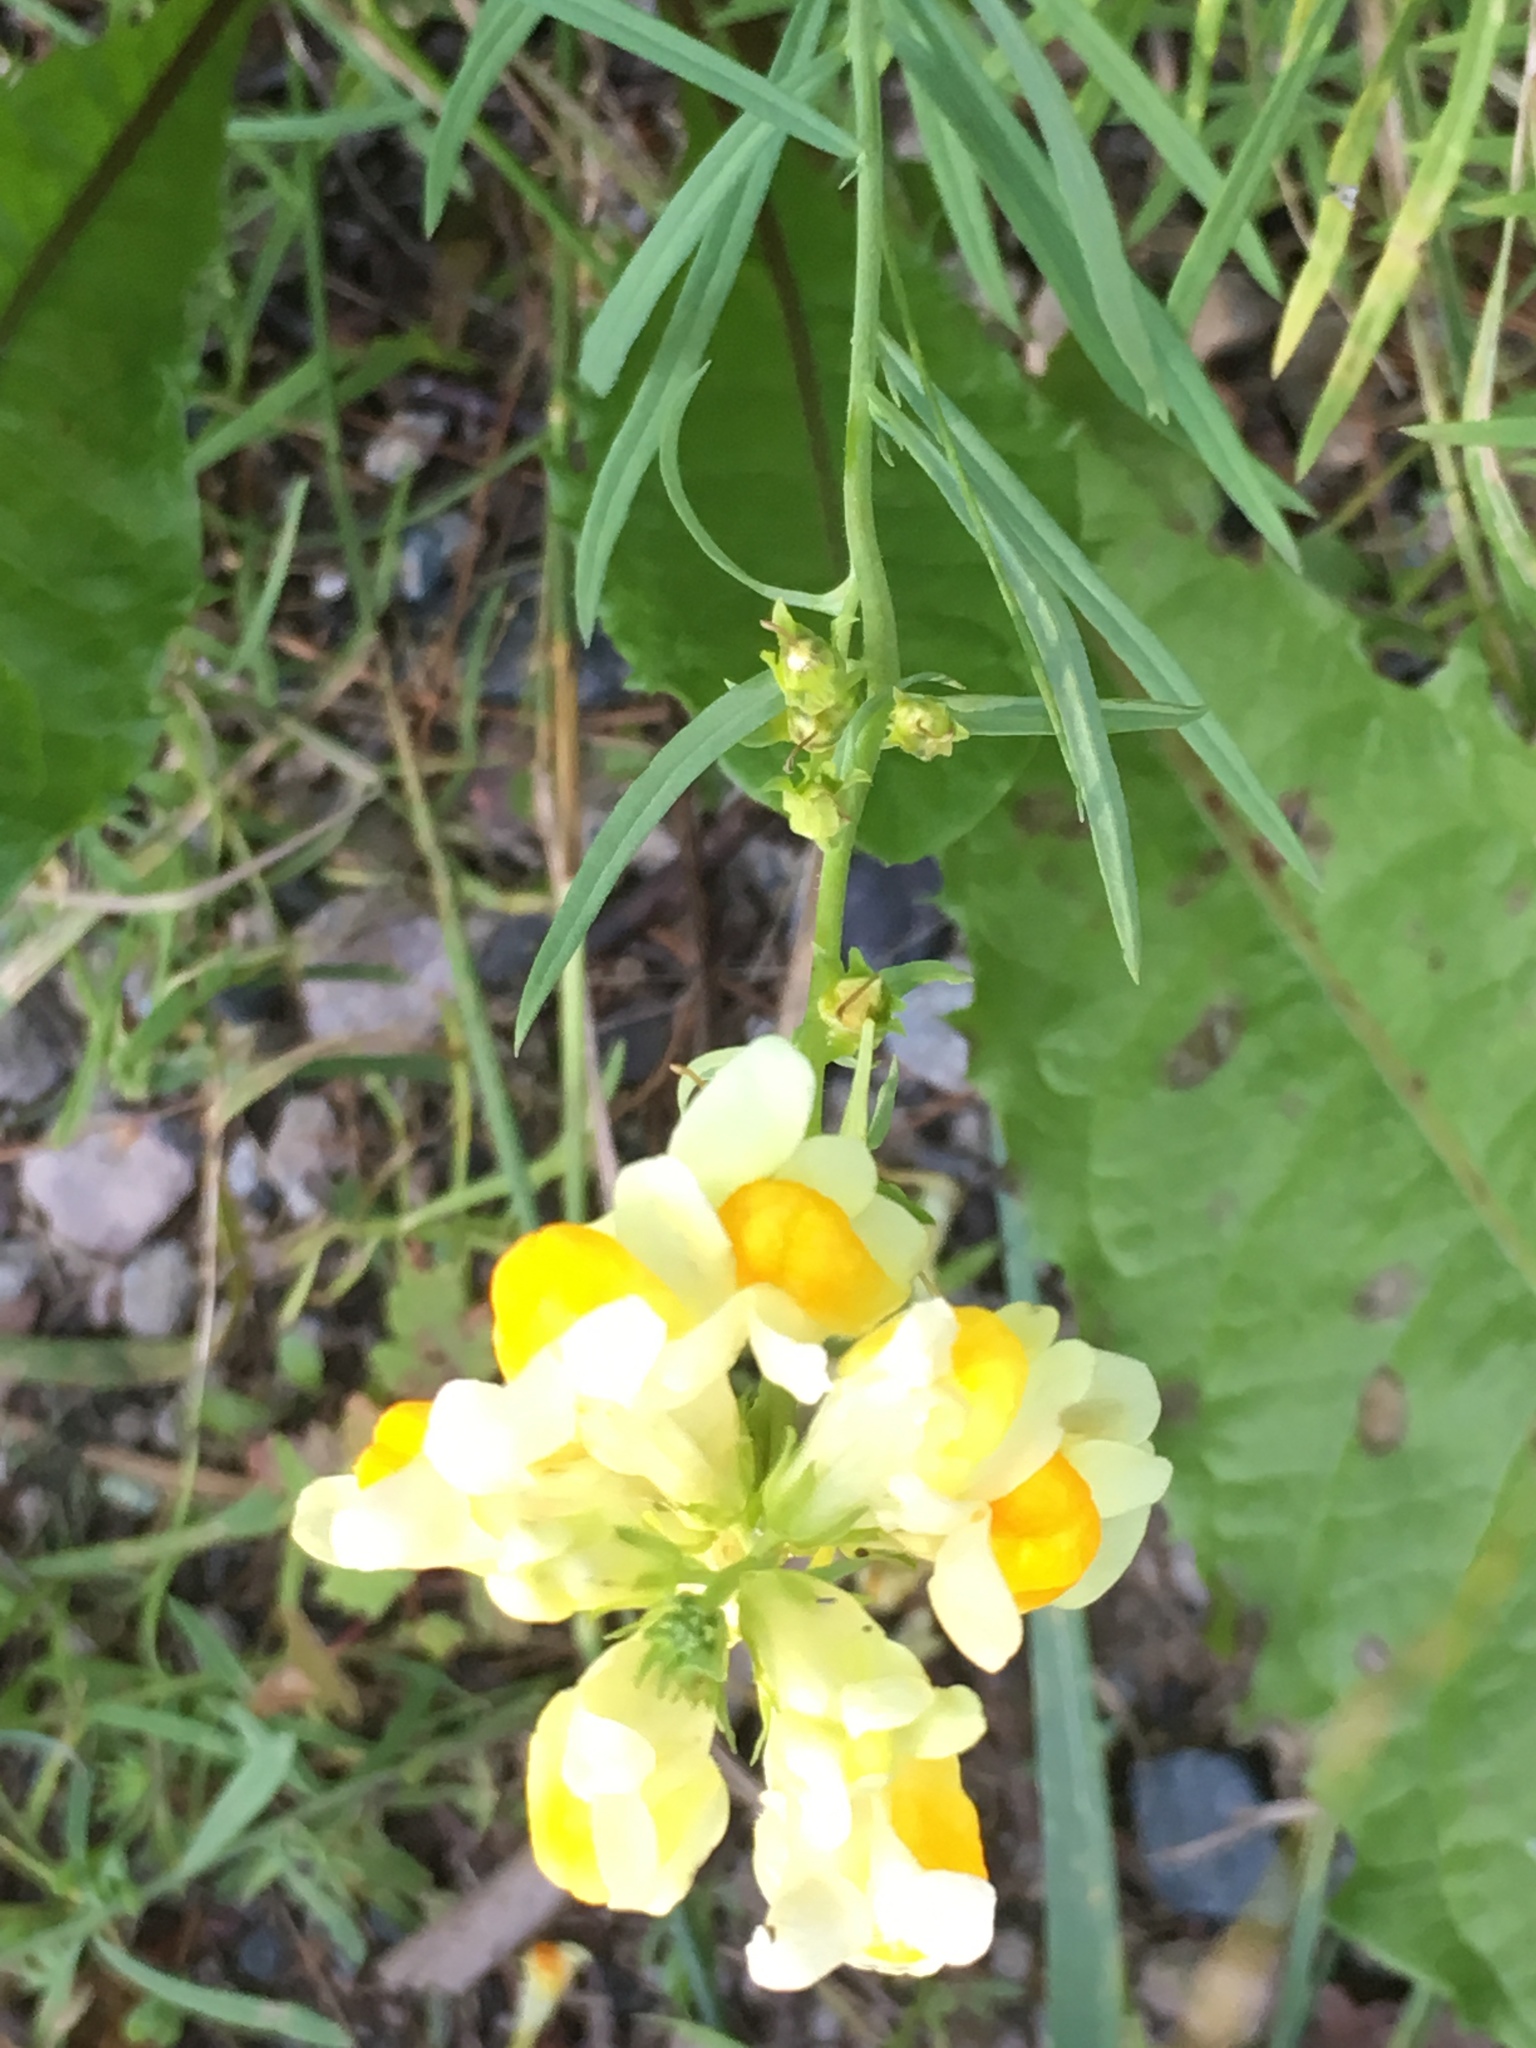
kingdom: Plantae
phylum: Tracheophyta
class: Magnoliopsida
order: Lamiales
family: Plantaginaceae
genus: Linaria
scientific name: Linaria vulgaris
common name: Butter and eggs
